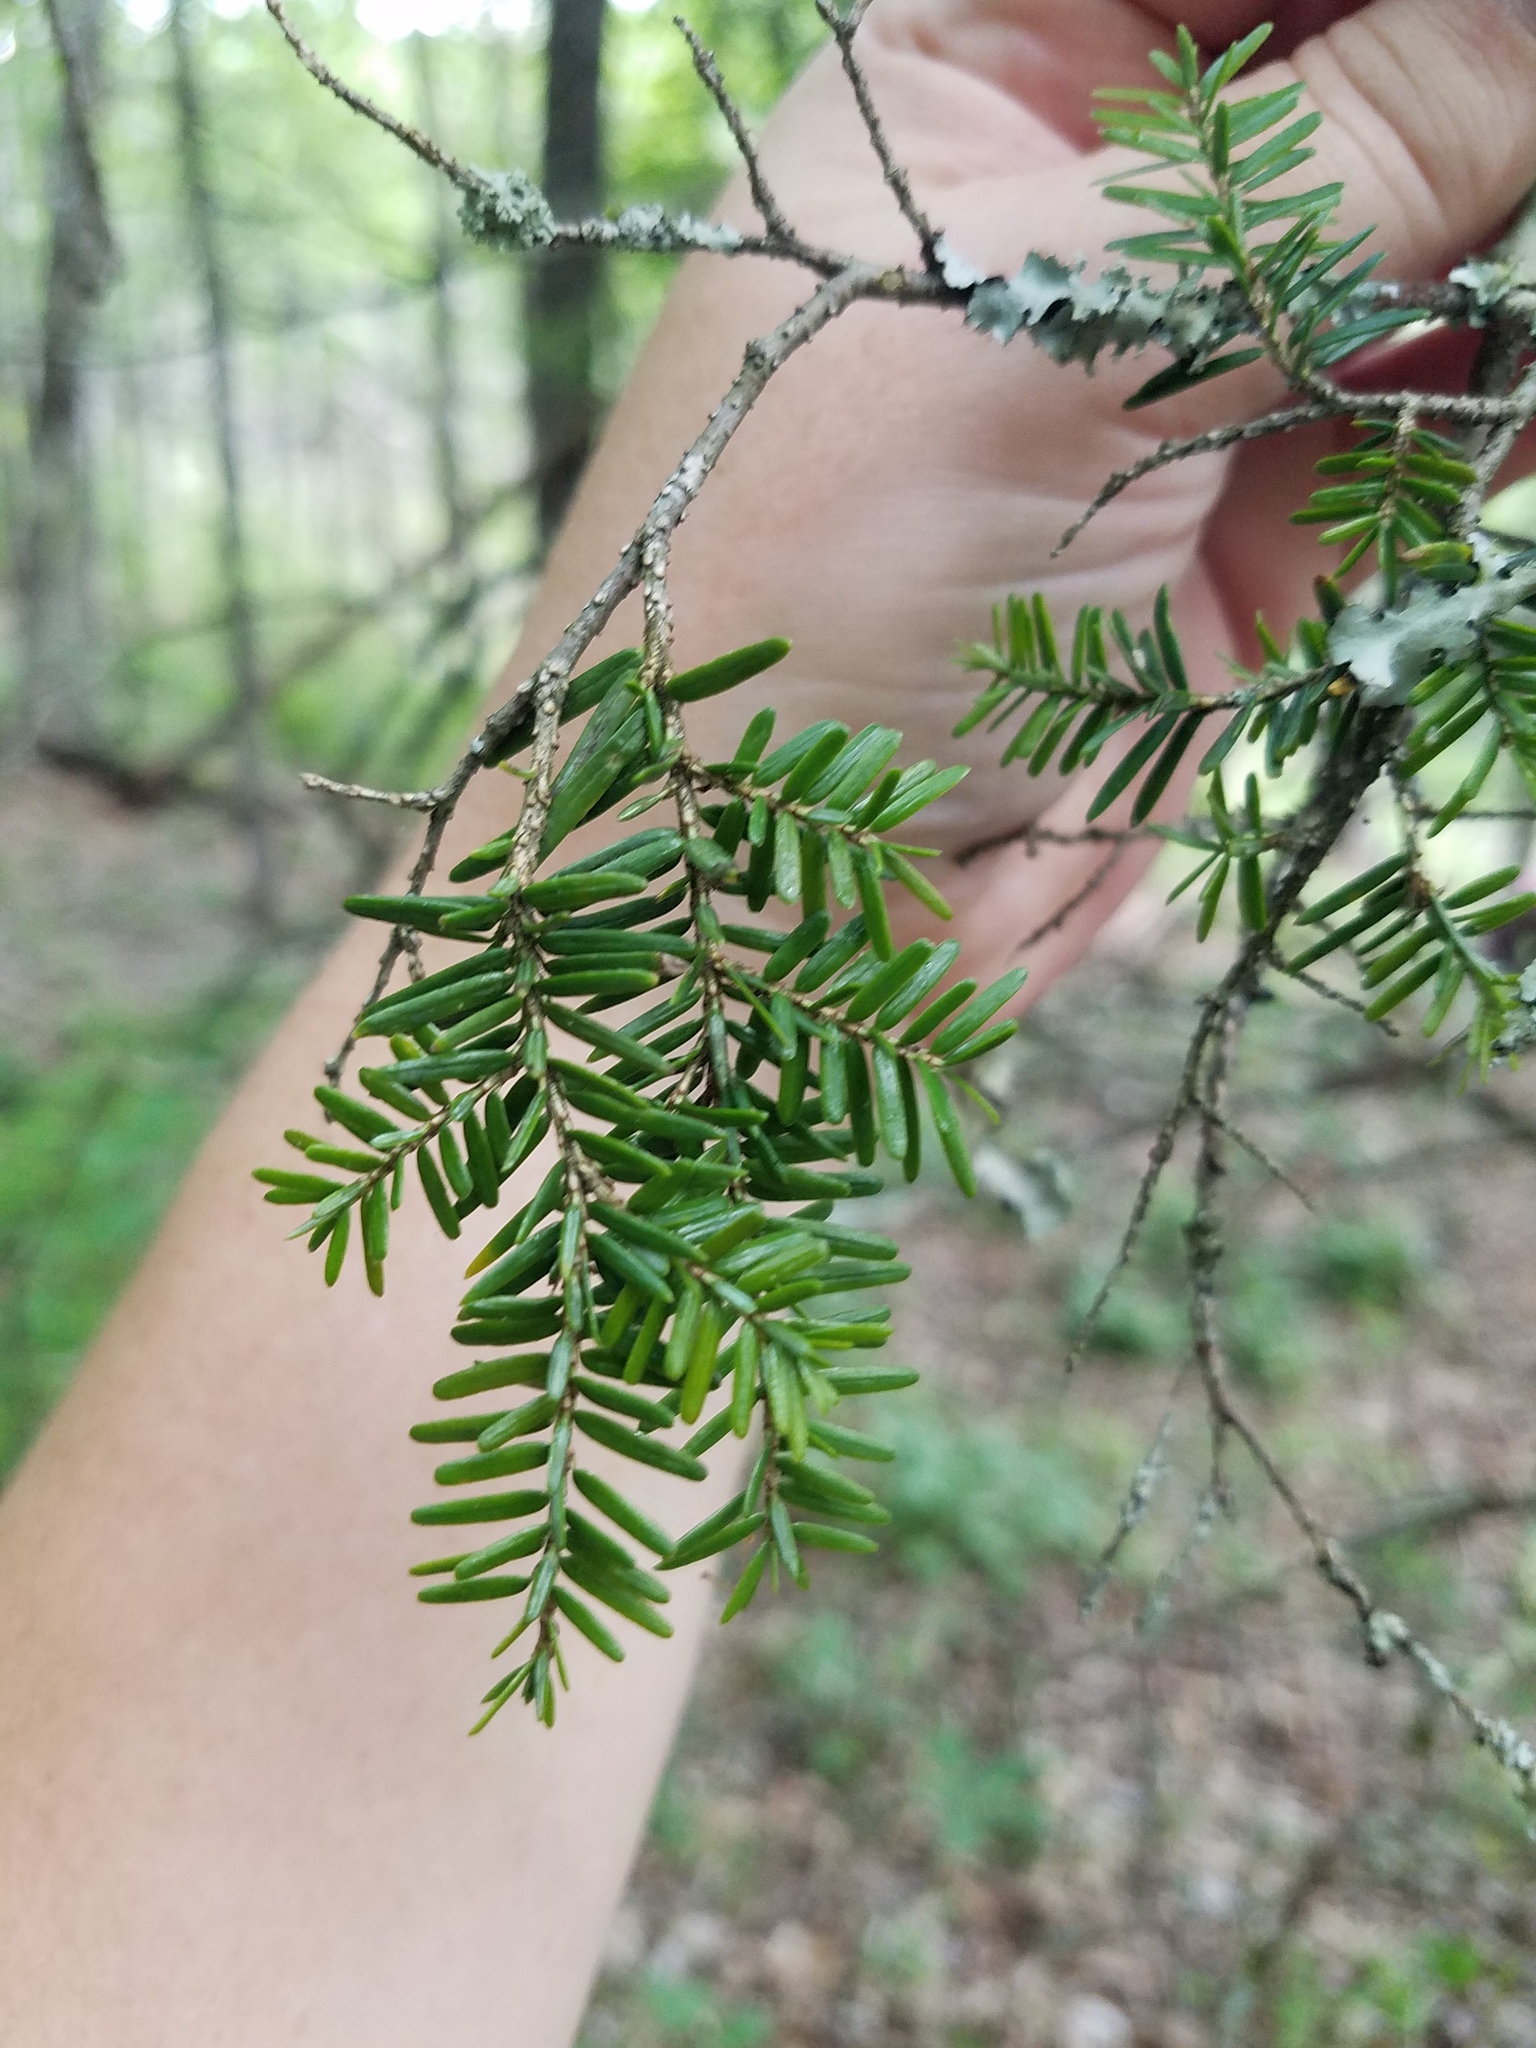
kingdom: Plantae
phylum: Tracheophyta
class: Pinopsida
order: Pinales
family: Pinaceae
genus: Tsuga
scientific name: Tsuga canadensis
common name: Eastern hemlock
